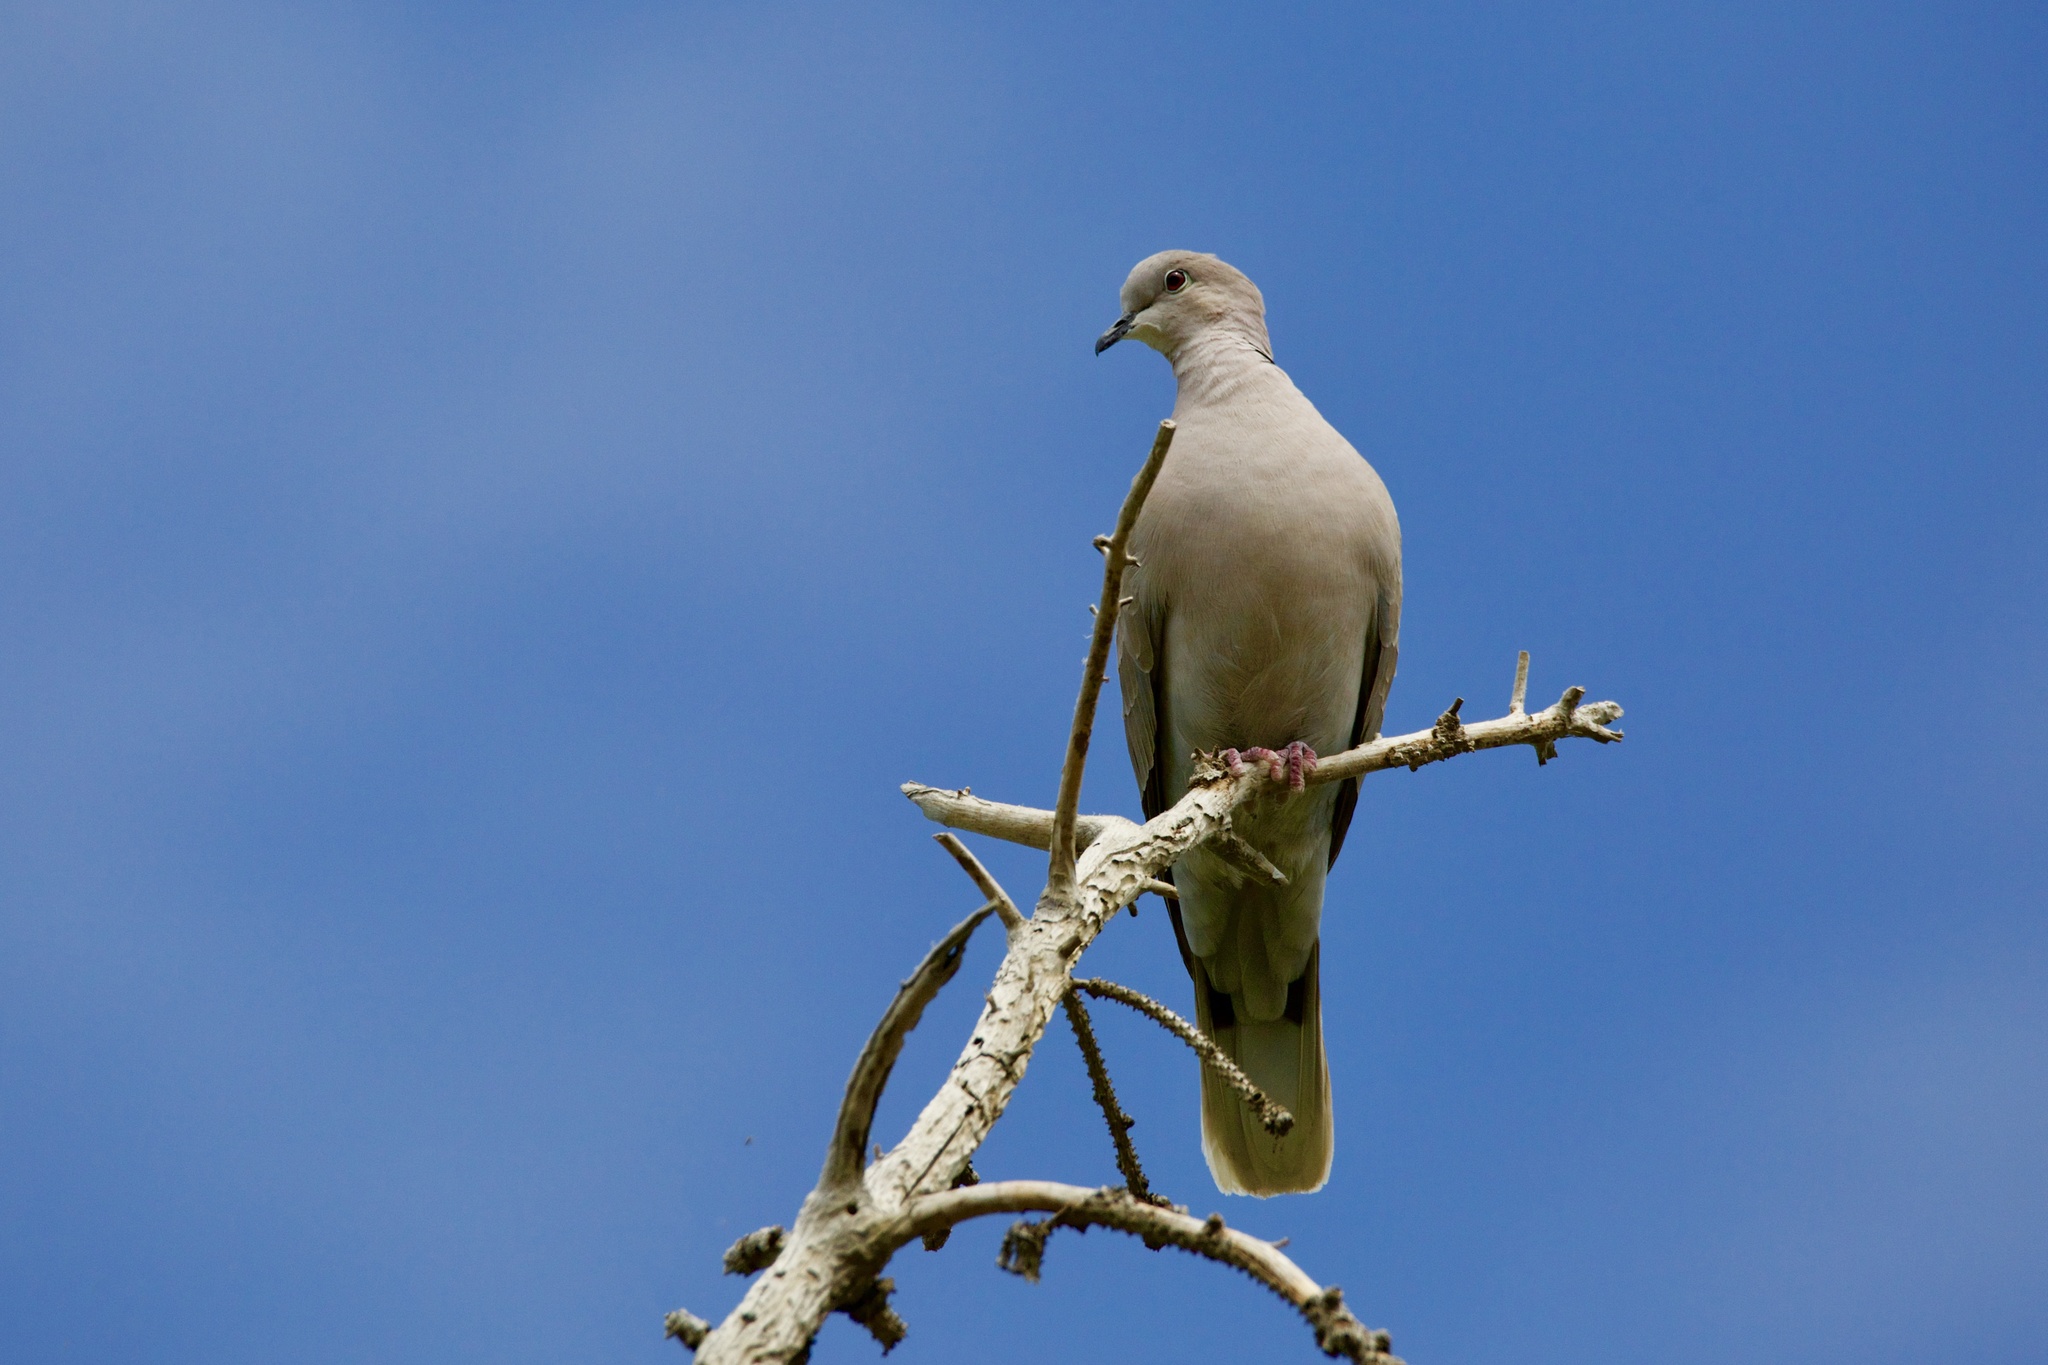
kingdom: Animalia
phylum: Chordata
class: Aves
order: Columbiformes
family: Columbidae
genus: Streptopelia
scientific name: Streptopelia decaocto
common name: Eurasian collared dove
